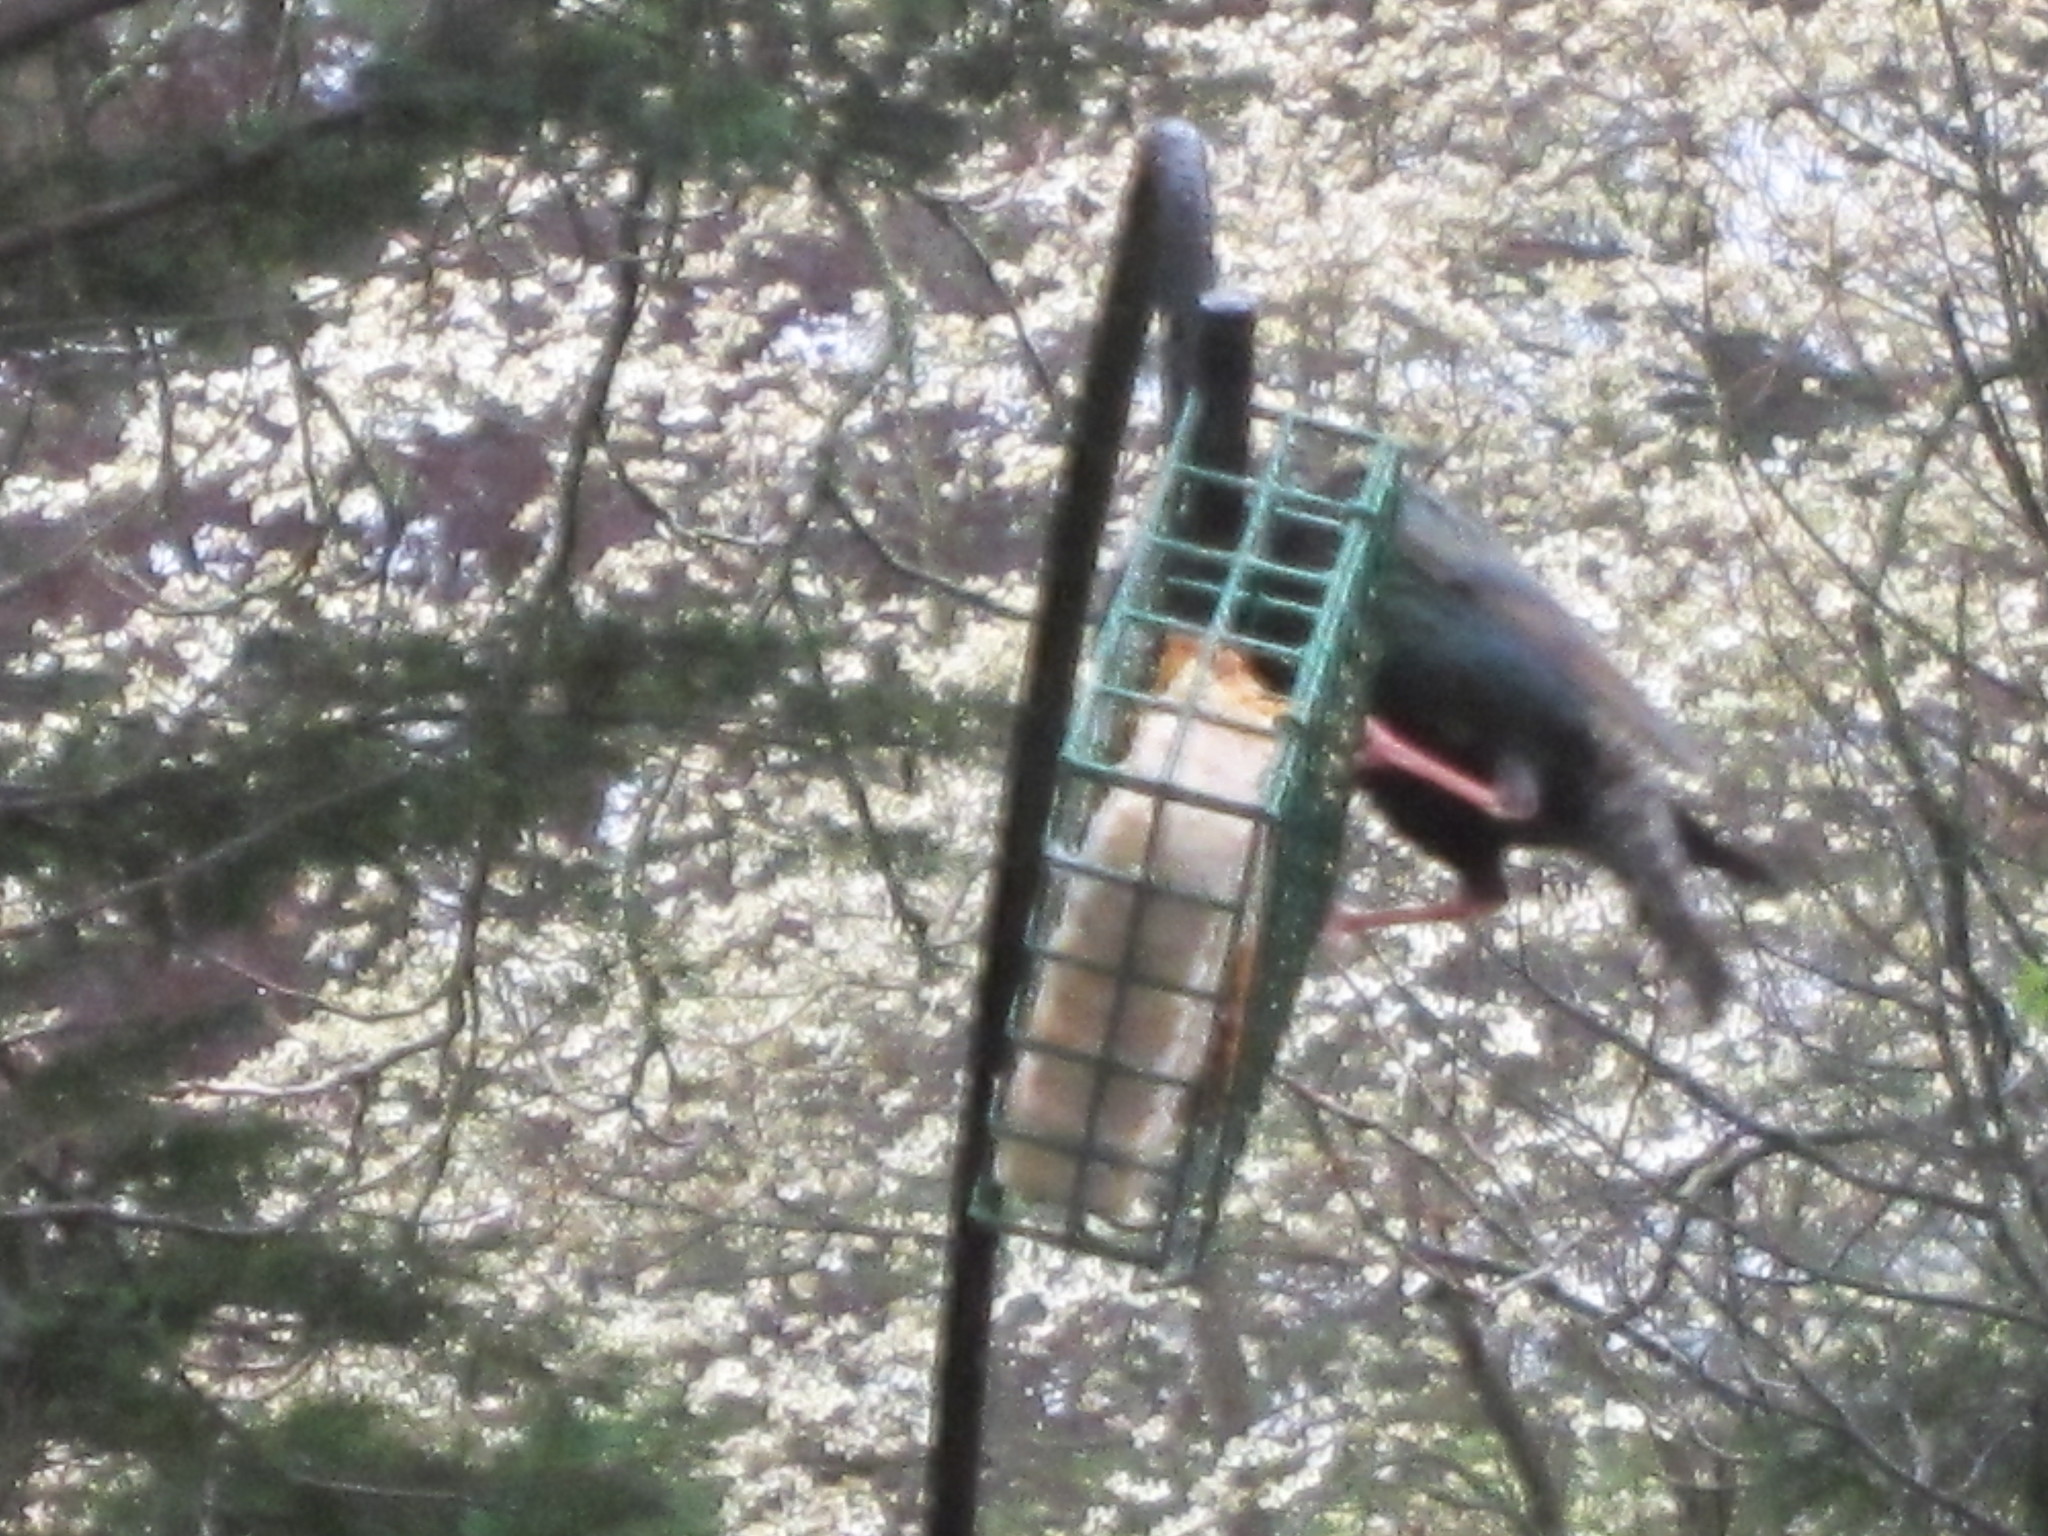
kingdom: Animalia
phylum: Chordata
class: Aves
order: Passeriformes
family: Sturnidae
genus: Sturnus
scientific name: Sturnus vulgaris
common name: Common starling
